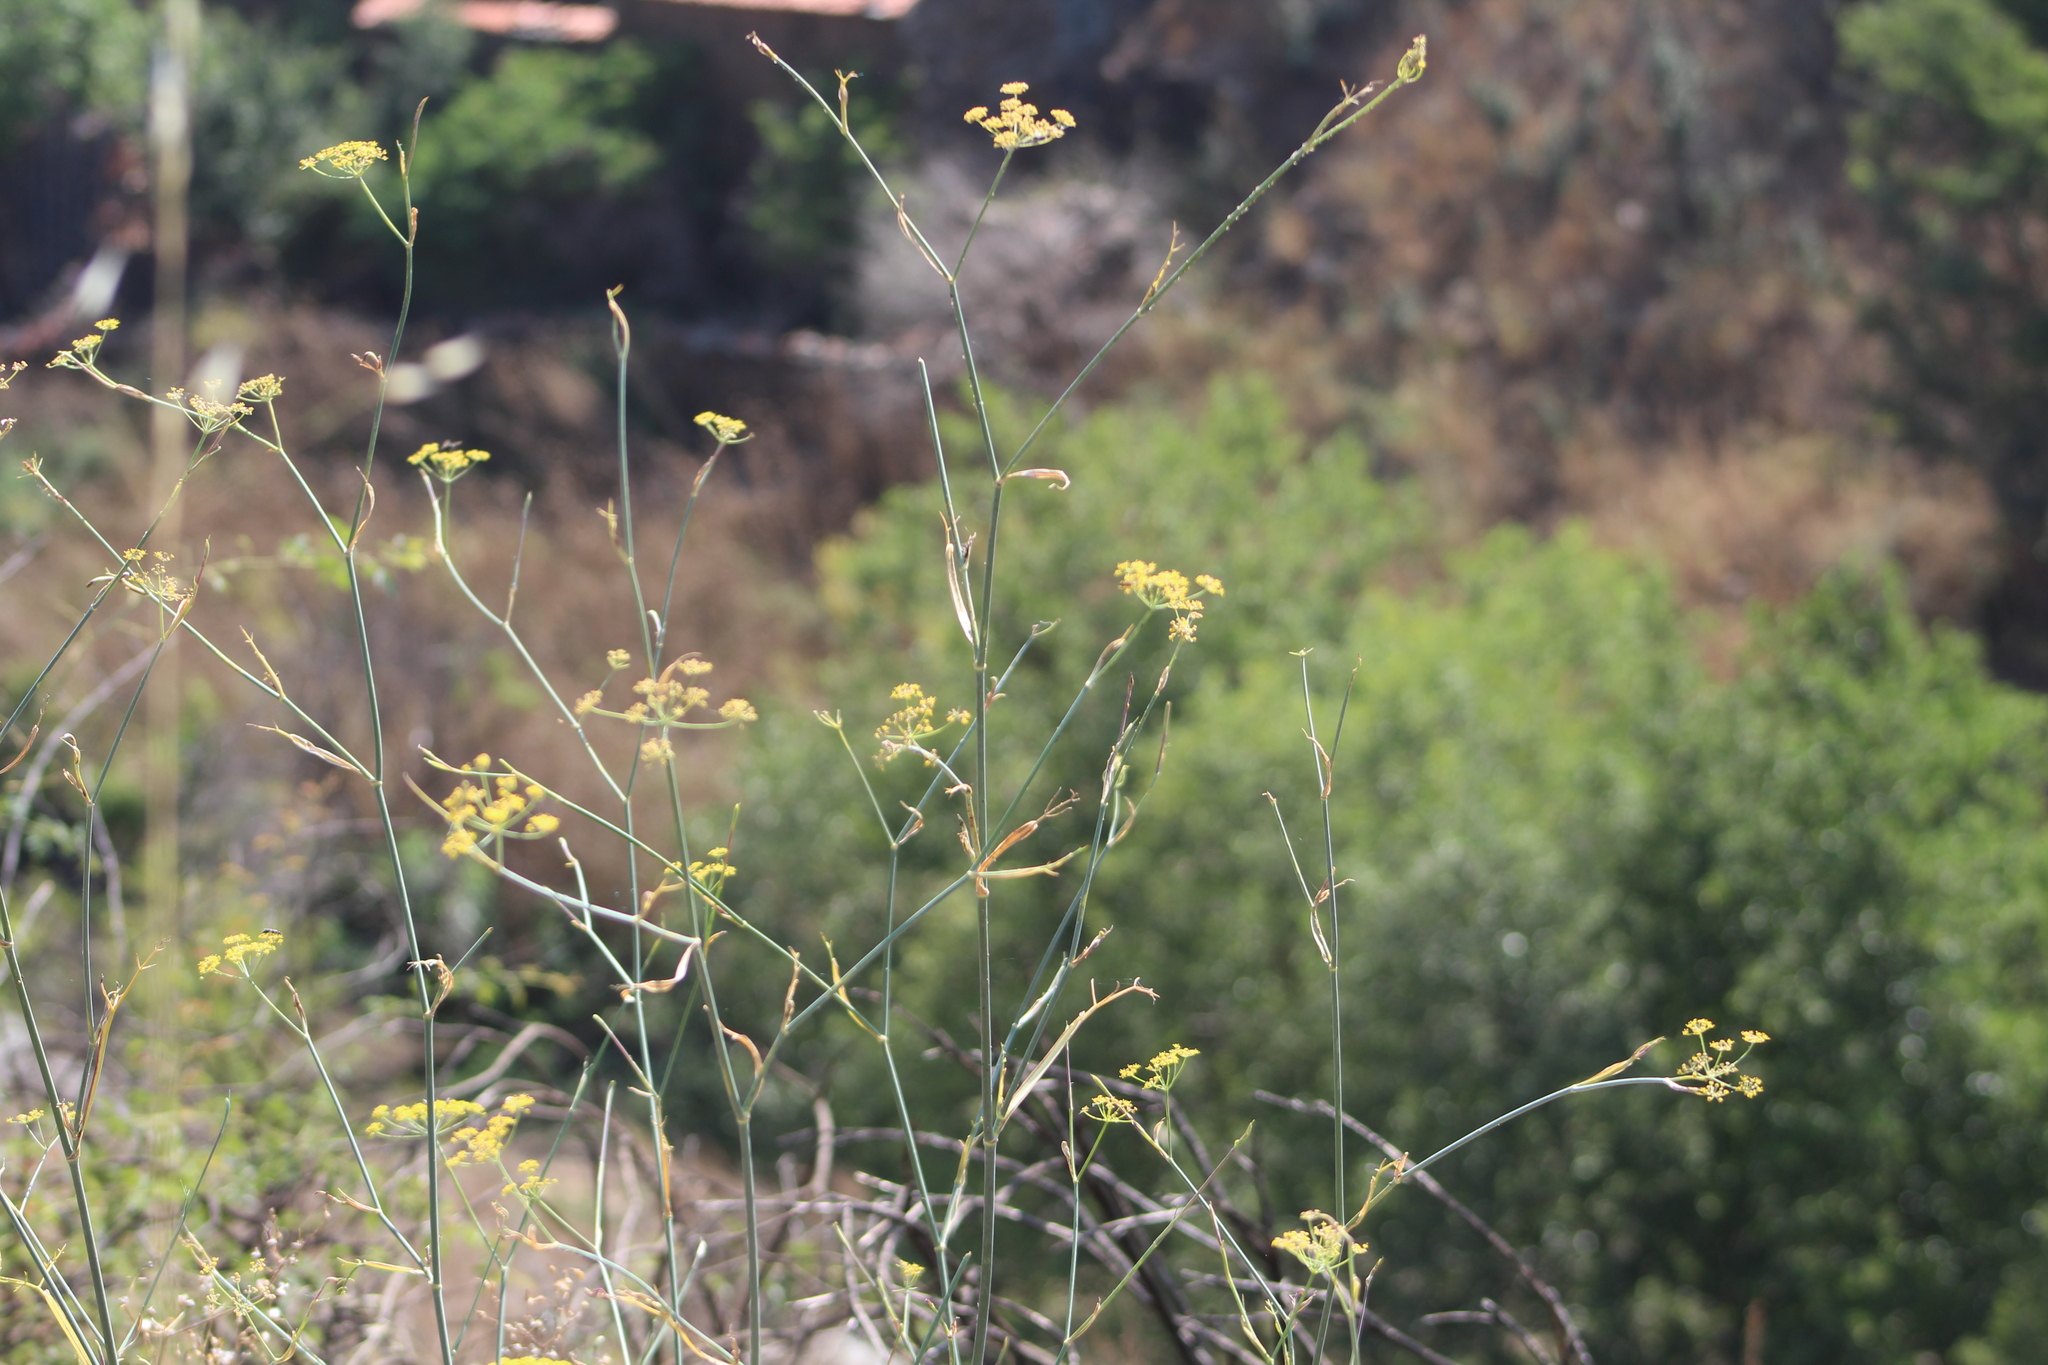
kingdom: Plantae
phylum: Tracheophyta
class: Magnoliopsida
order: Apiales
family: Apiaceae
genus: Foeniculum
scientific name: Foeniculum vulgare
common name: Fennel
